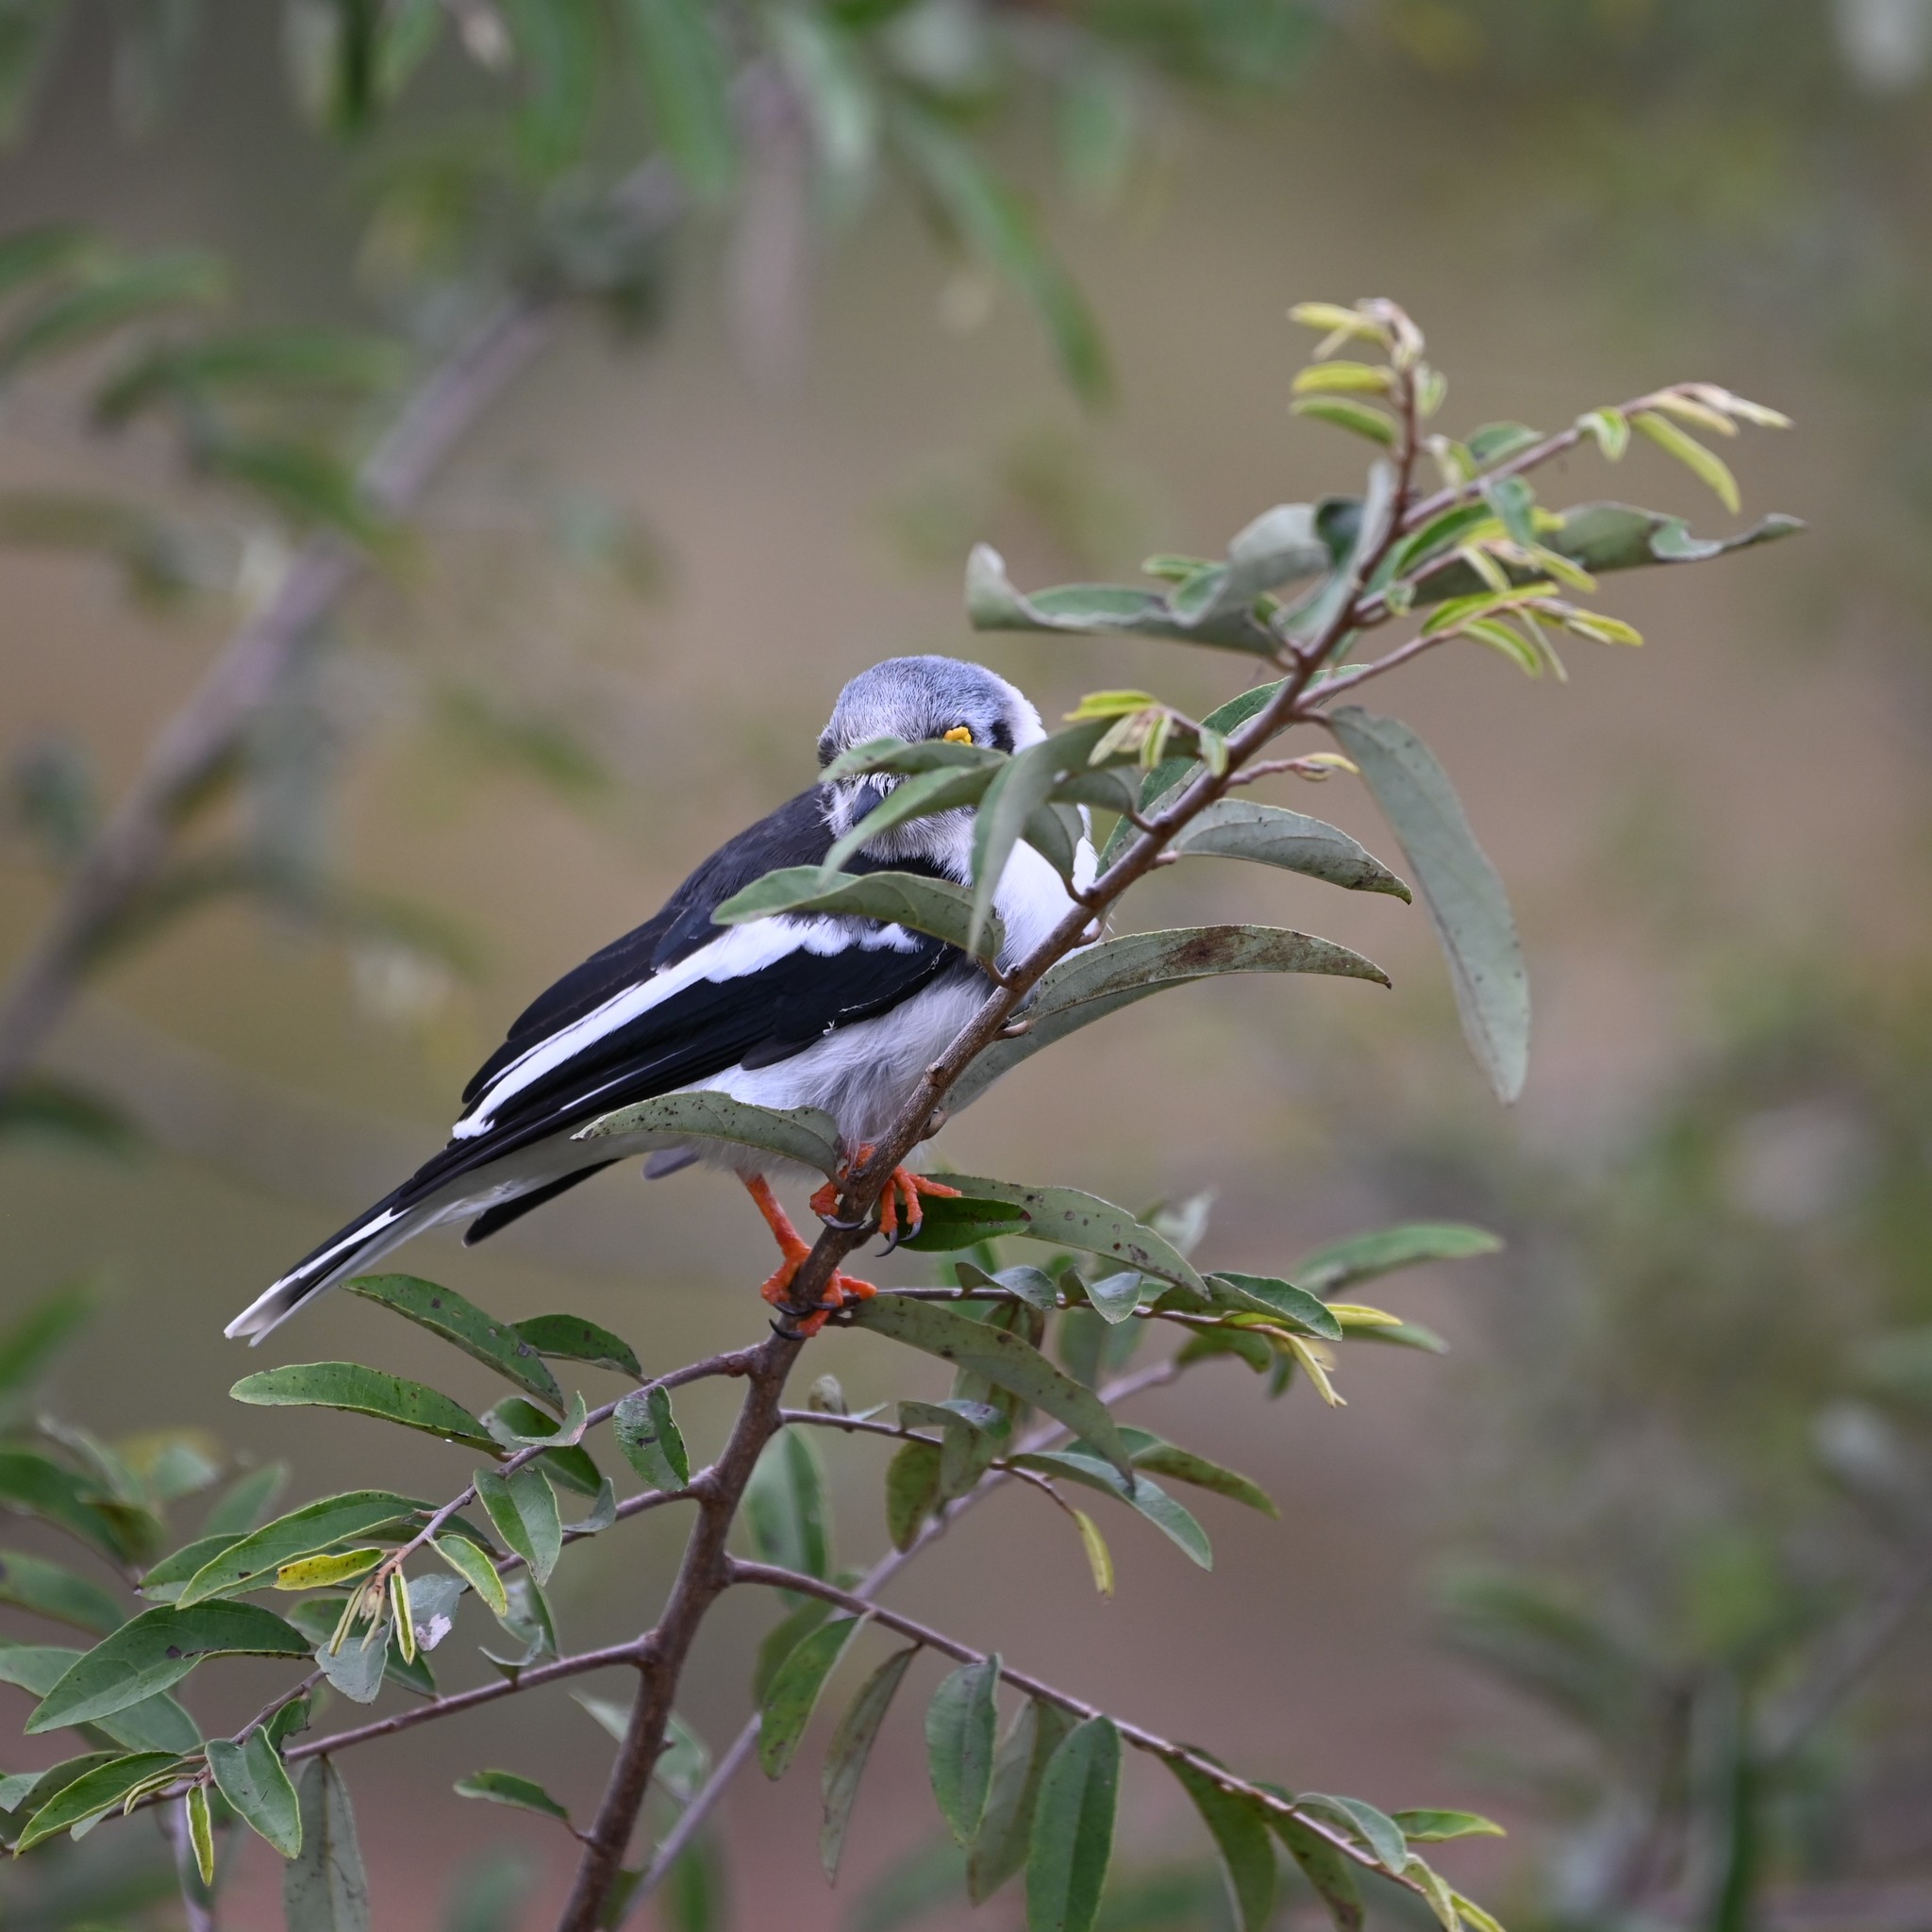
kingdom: Animalia
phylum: Chordata
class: Aves
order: Passeriformes
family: Prionopidae
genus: Prionops
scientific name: Prionops plumatus
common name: White-crested helmetshrike
